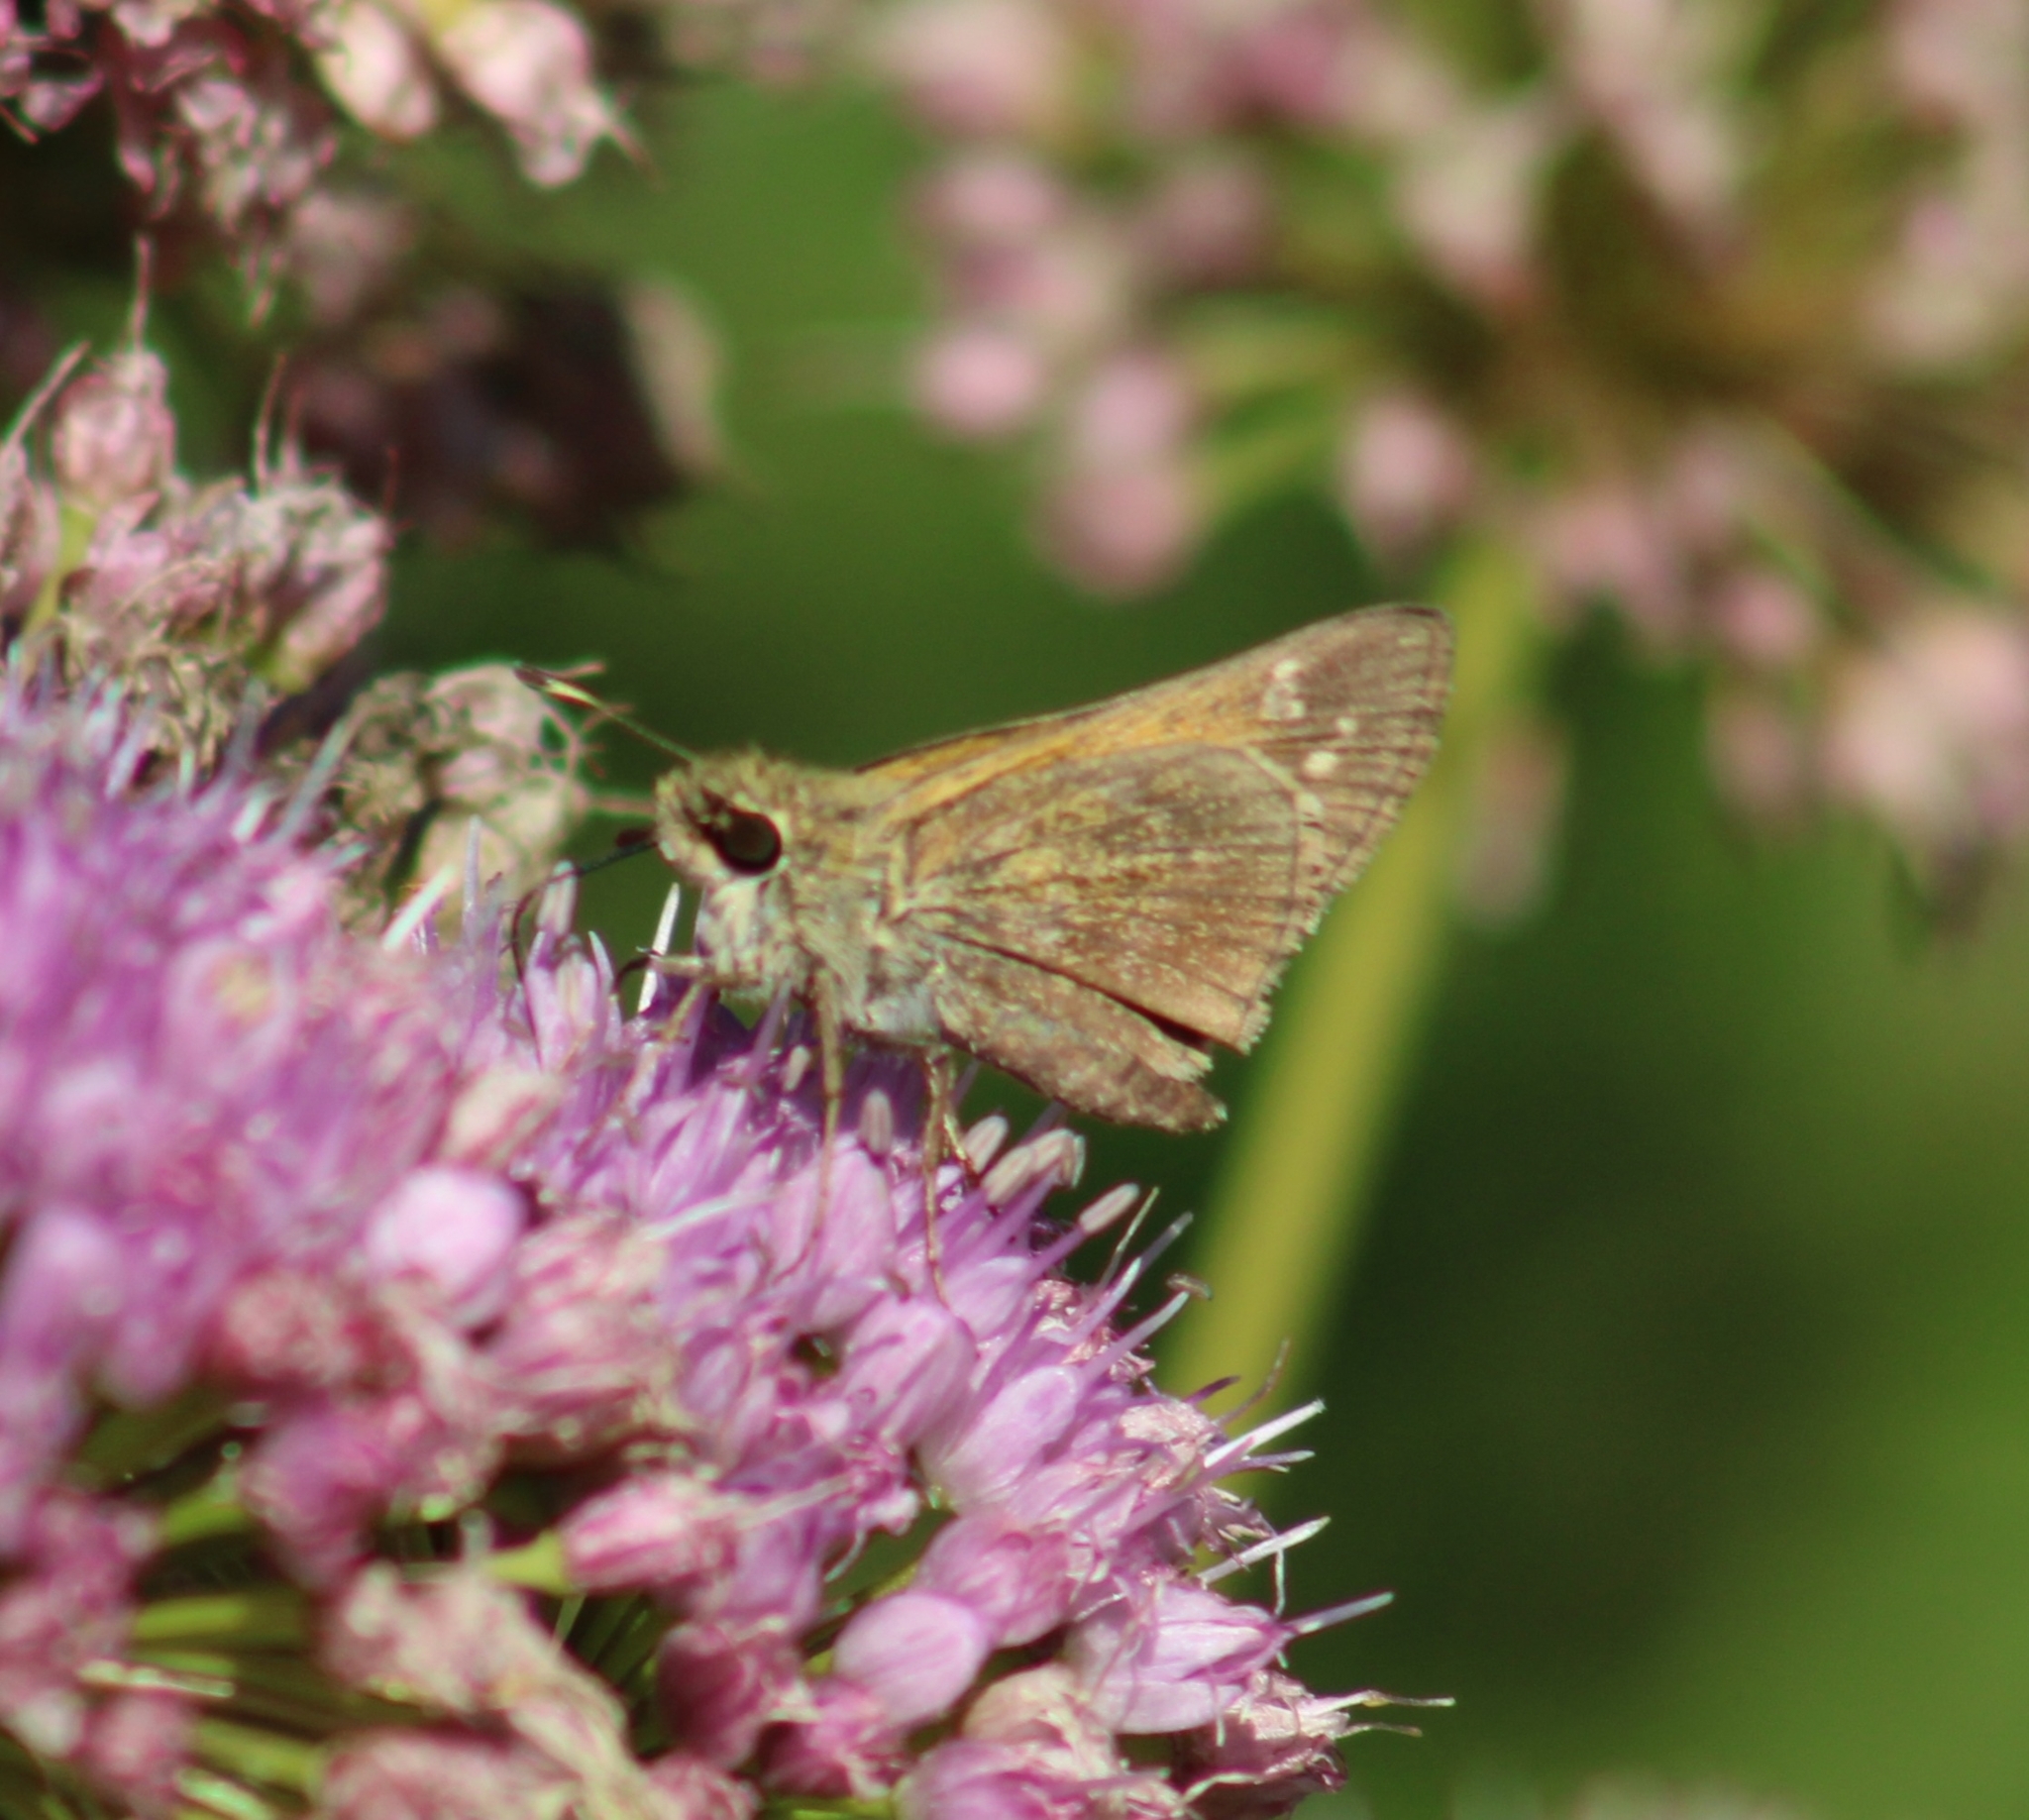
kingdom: Animalia
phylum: Arthropoda
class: Insecta
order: Lepidoptera
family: Hesperiidae
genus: Atalopedes
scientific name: Atalopedes
